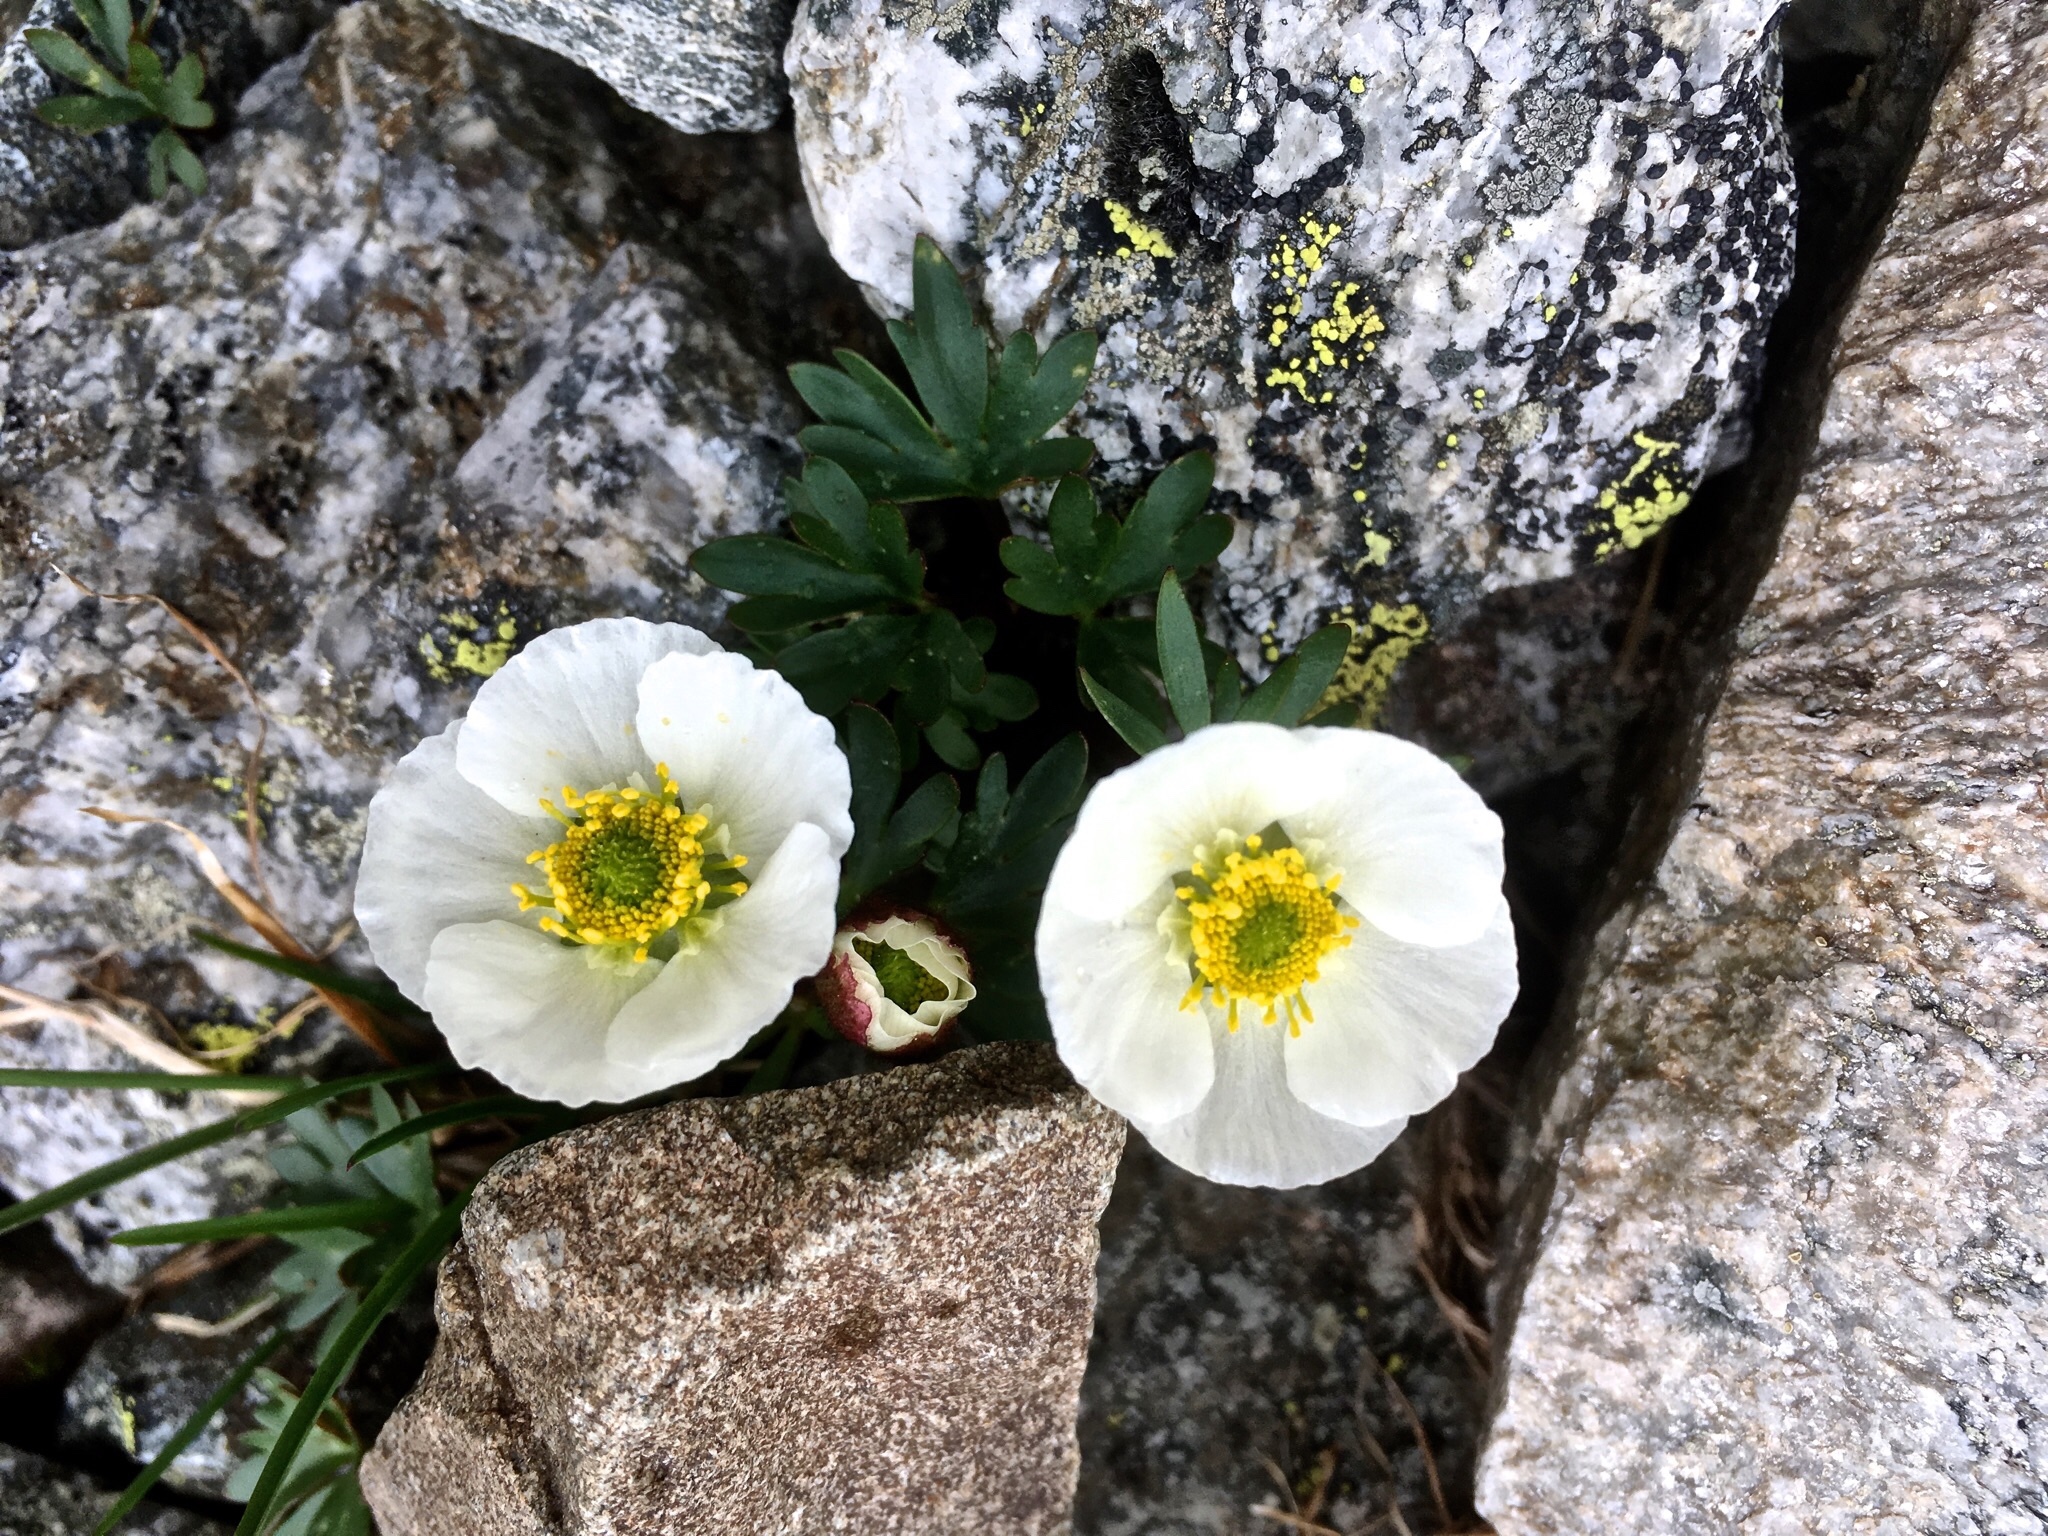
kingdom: Plantae
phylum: Tracheophyta
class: Magnoliopsida
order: Ranunculales
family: Ranunculaceae
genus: Ranunculus
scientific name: Ranunculus glacialis
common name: Glacier buttercup
